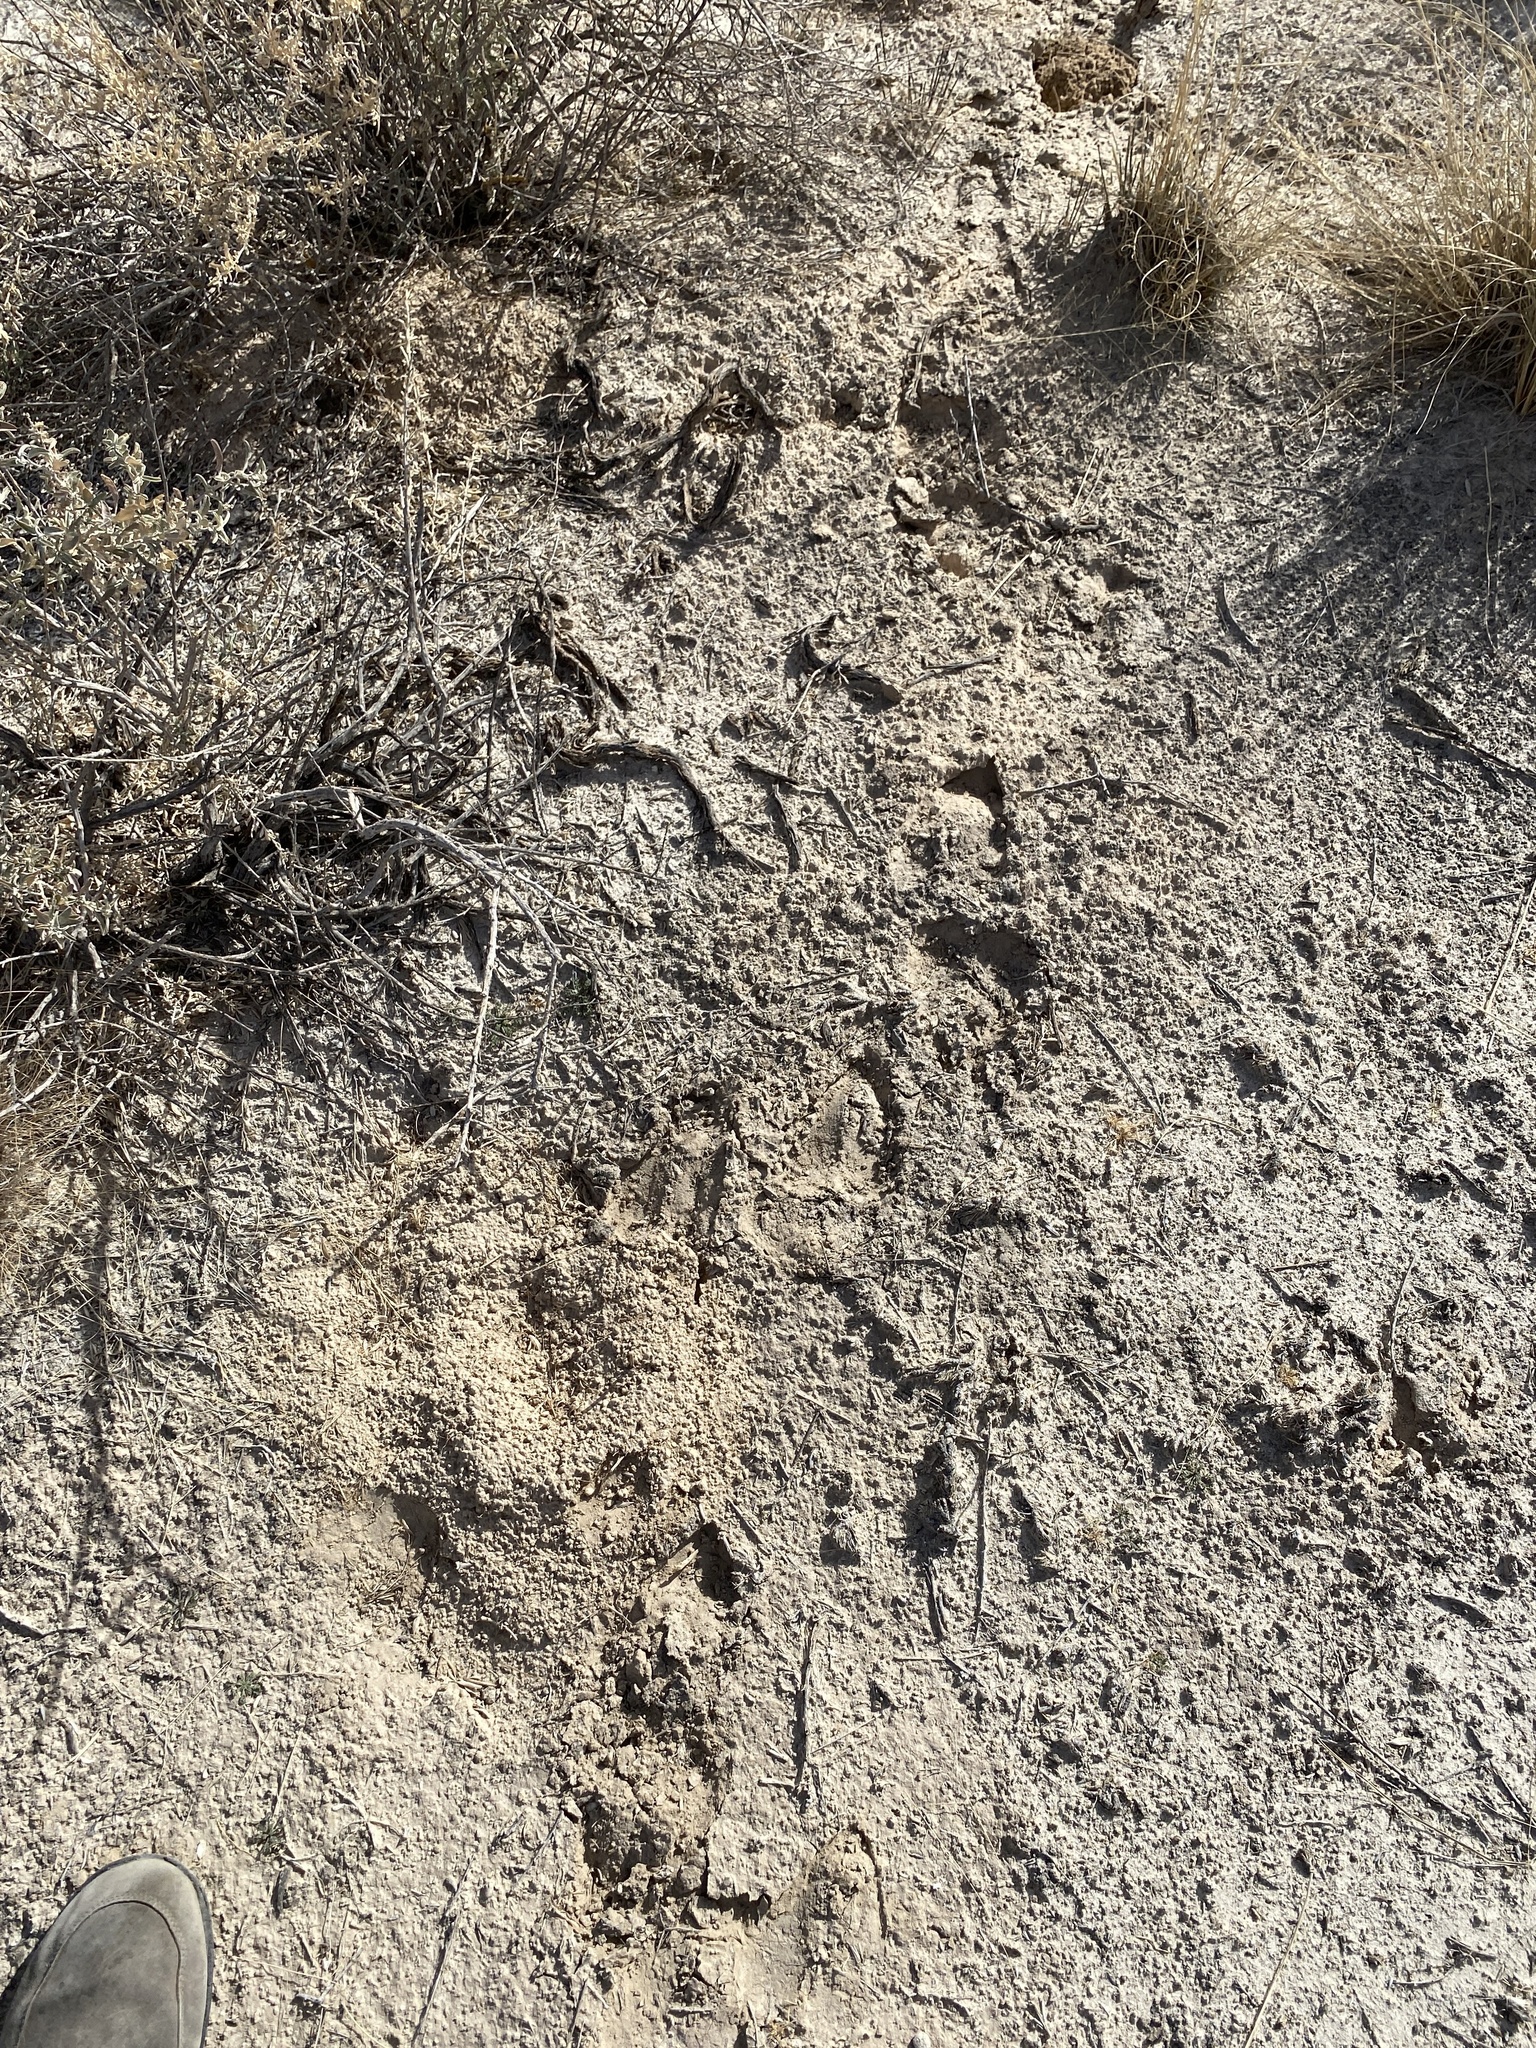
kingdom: Animalia
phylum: Chordata
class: Mammalia
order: Artiodactyla
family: Bovidae
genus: Oryx
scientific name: Oryx gazella
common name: Gemsbok
